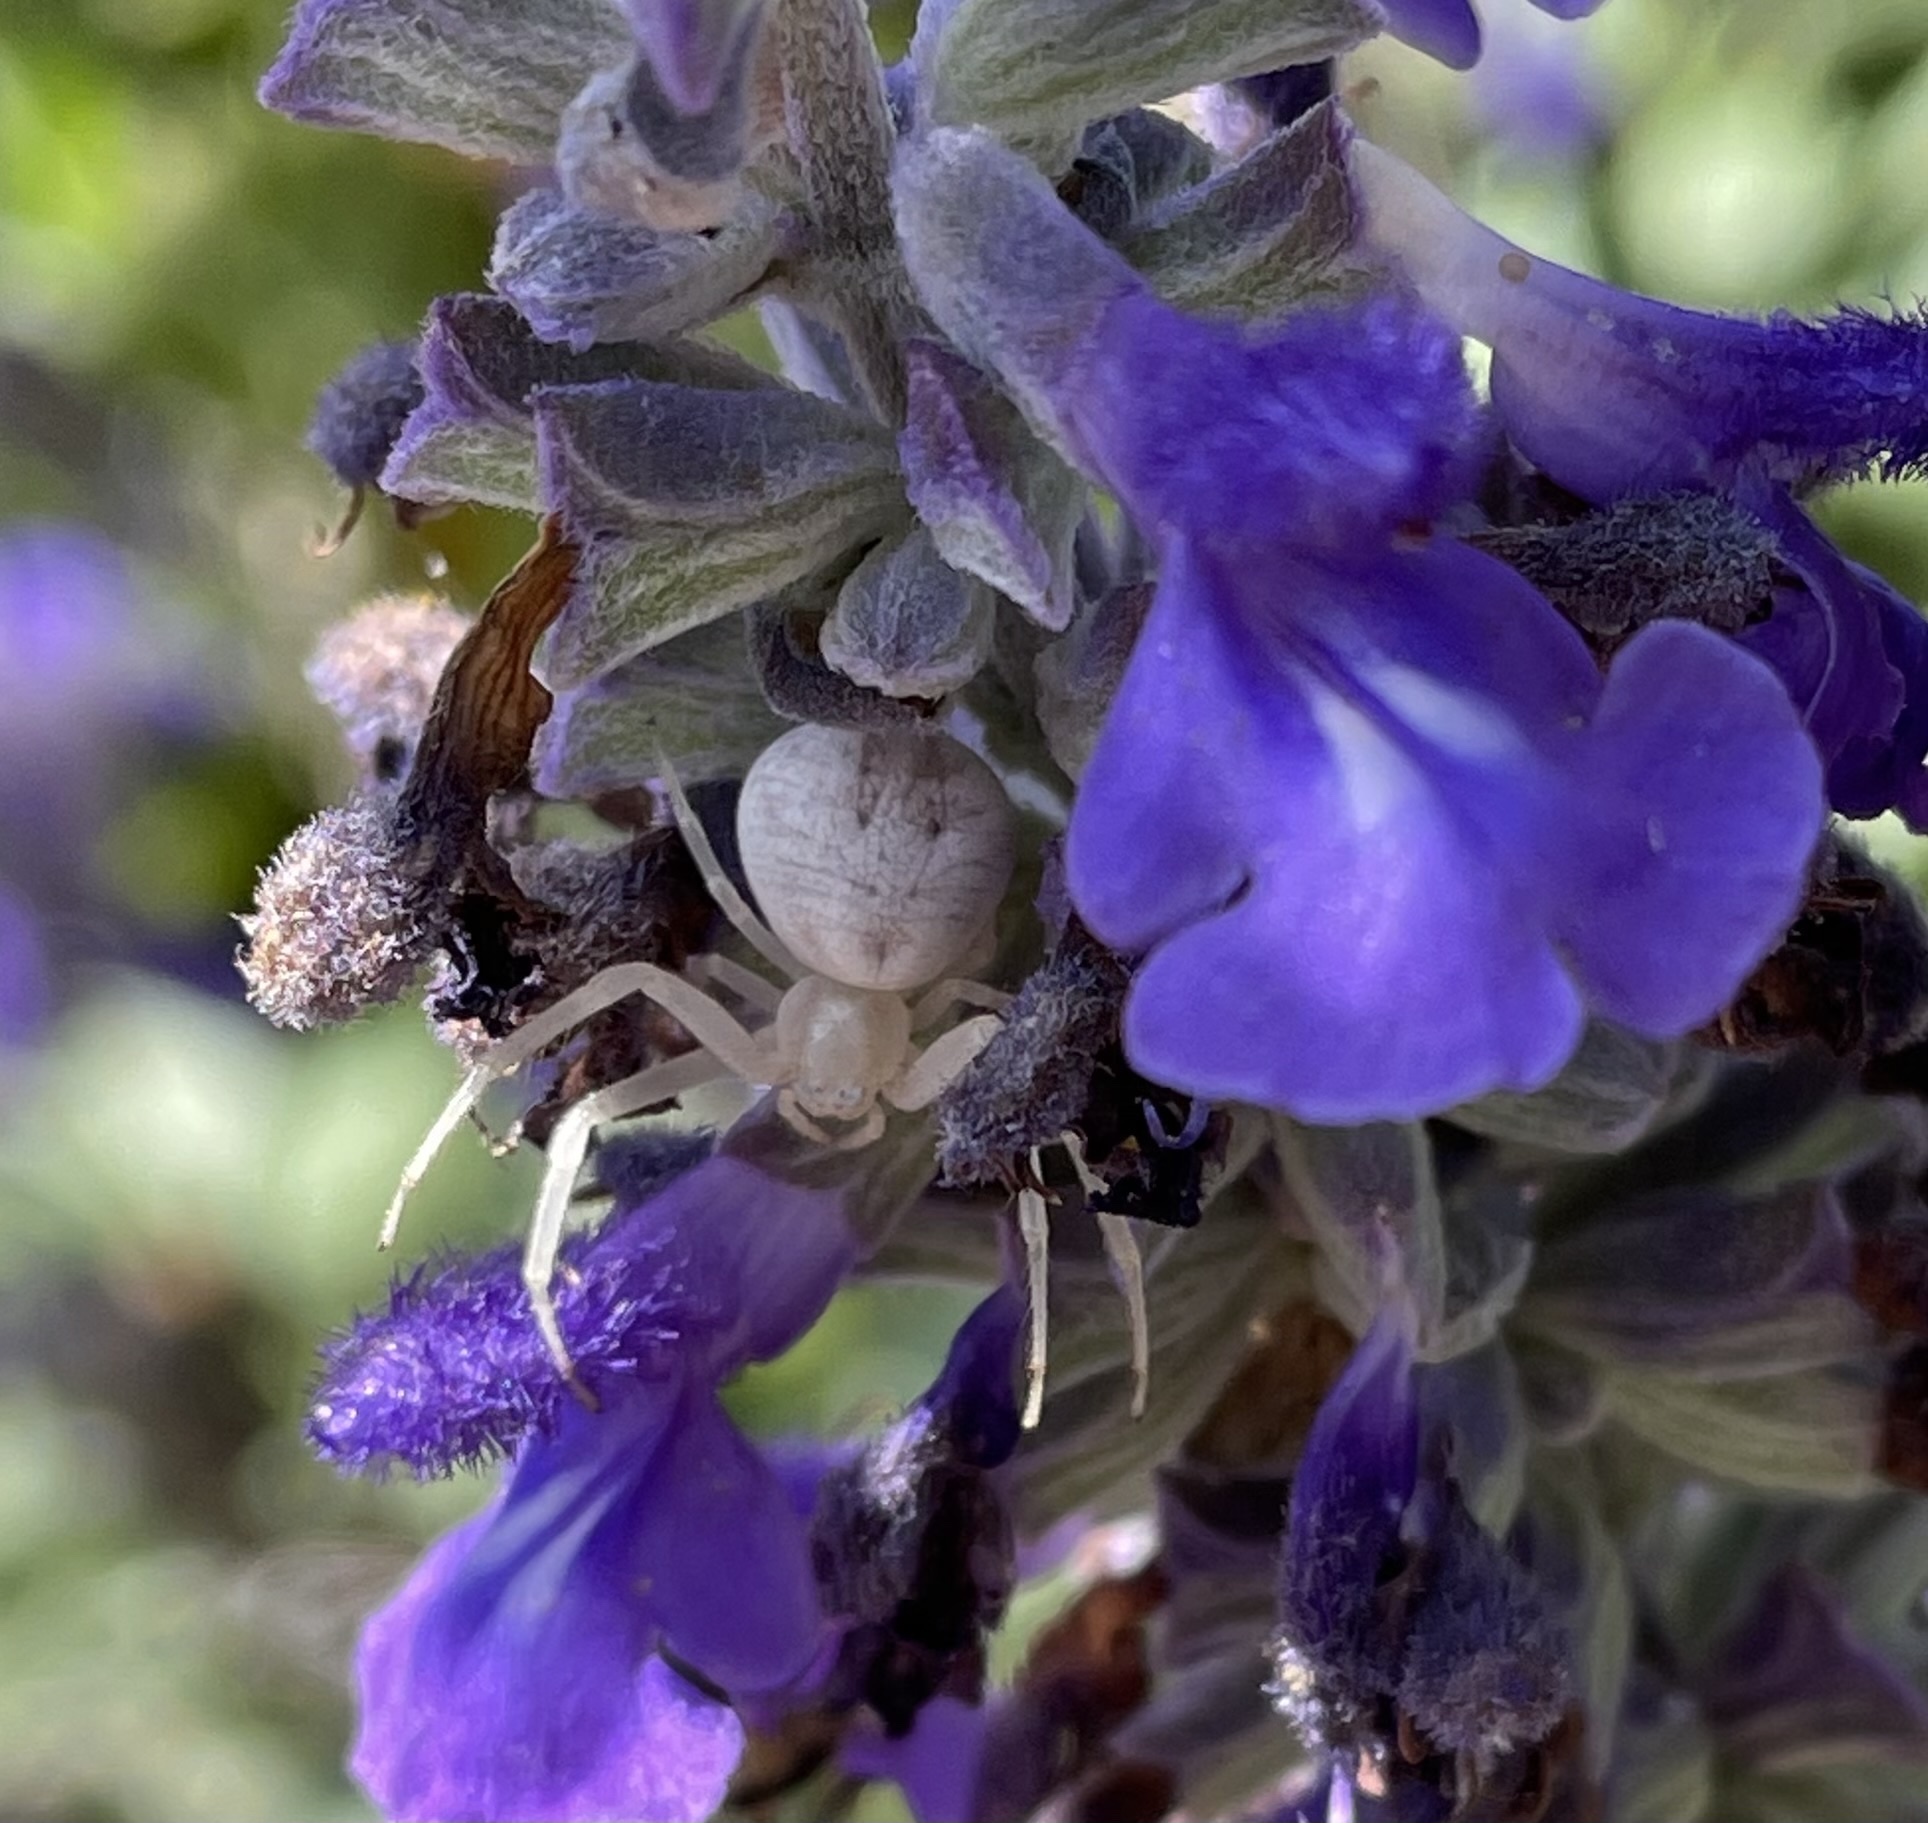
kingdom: Animalia
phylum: Arthropoda
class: Arachnida
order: Araneae
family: Thomisidae
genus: Misumena
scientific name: Misumena vatia
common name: Goldenrod crab spider
